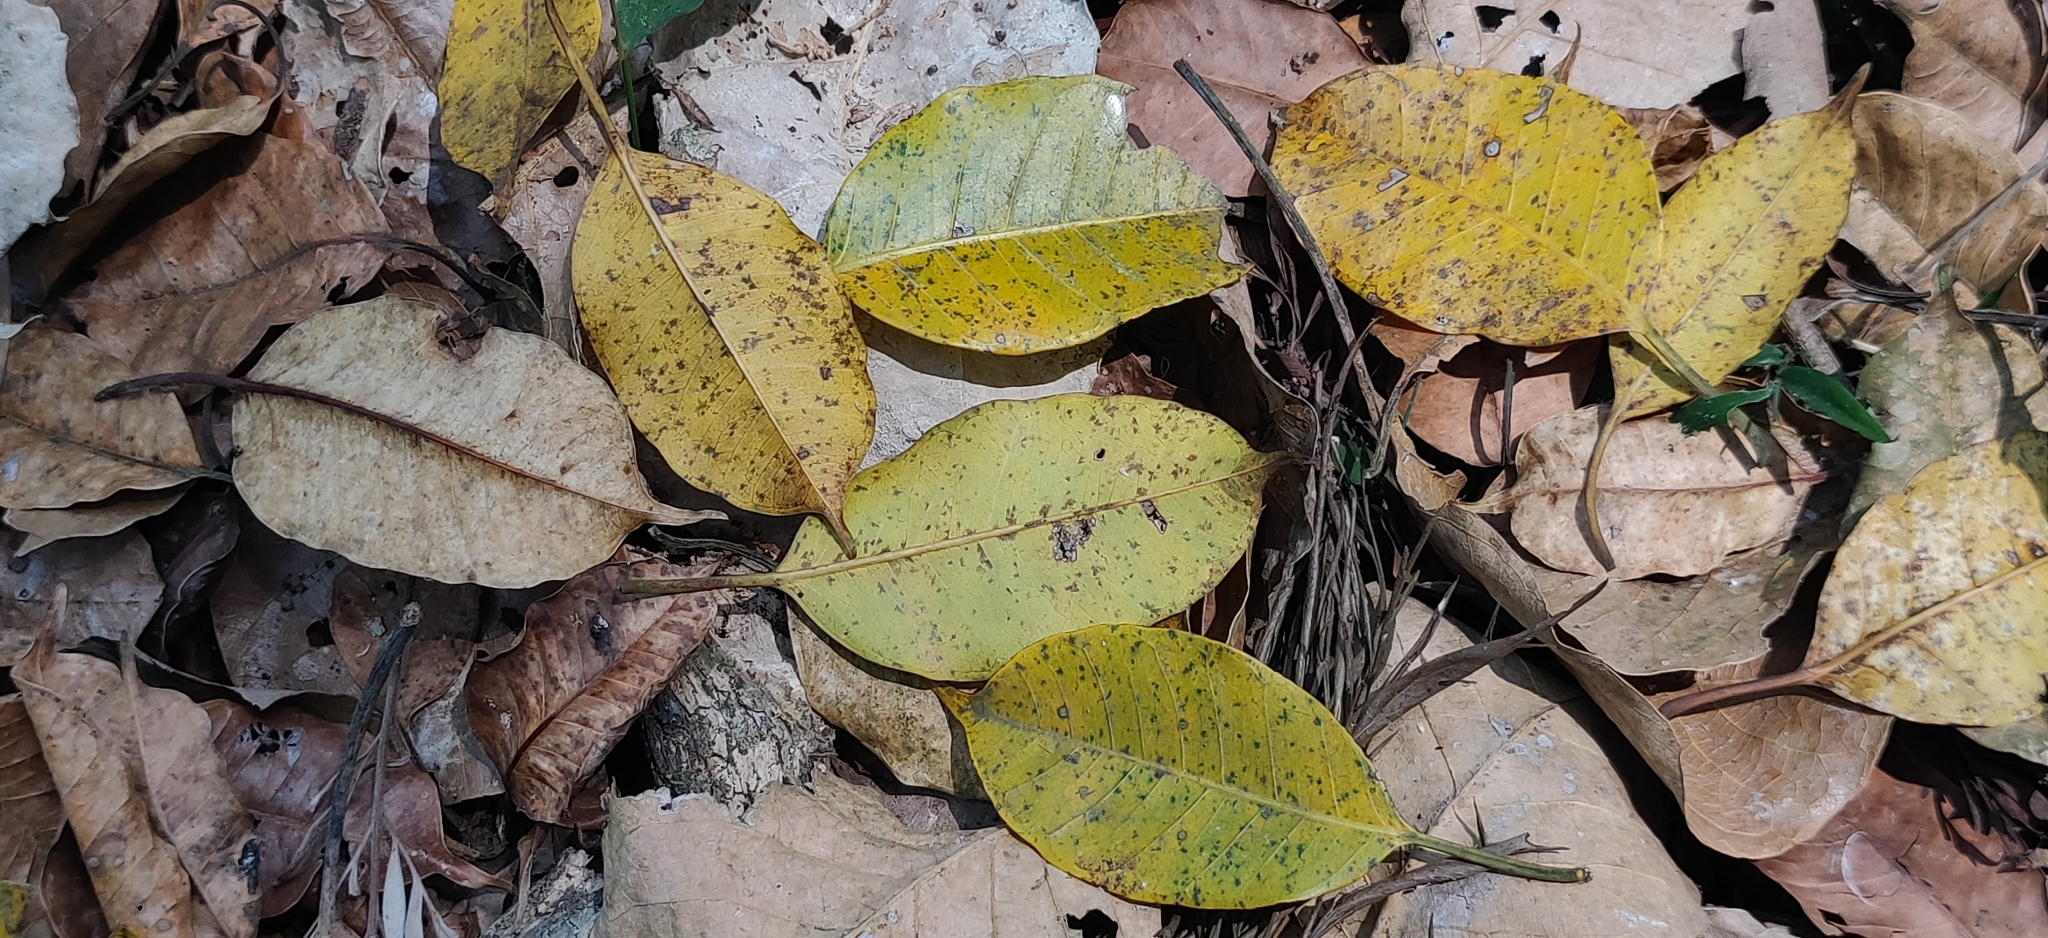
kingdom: Plantae
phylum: Tracheophyta
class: Magnoliopsida
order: Rosales
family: Moraceae
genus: Ficus
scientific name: Ficus amplissima
